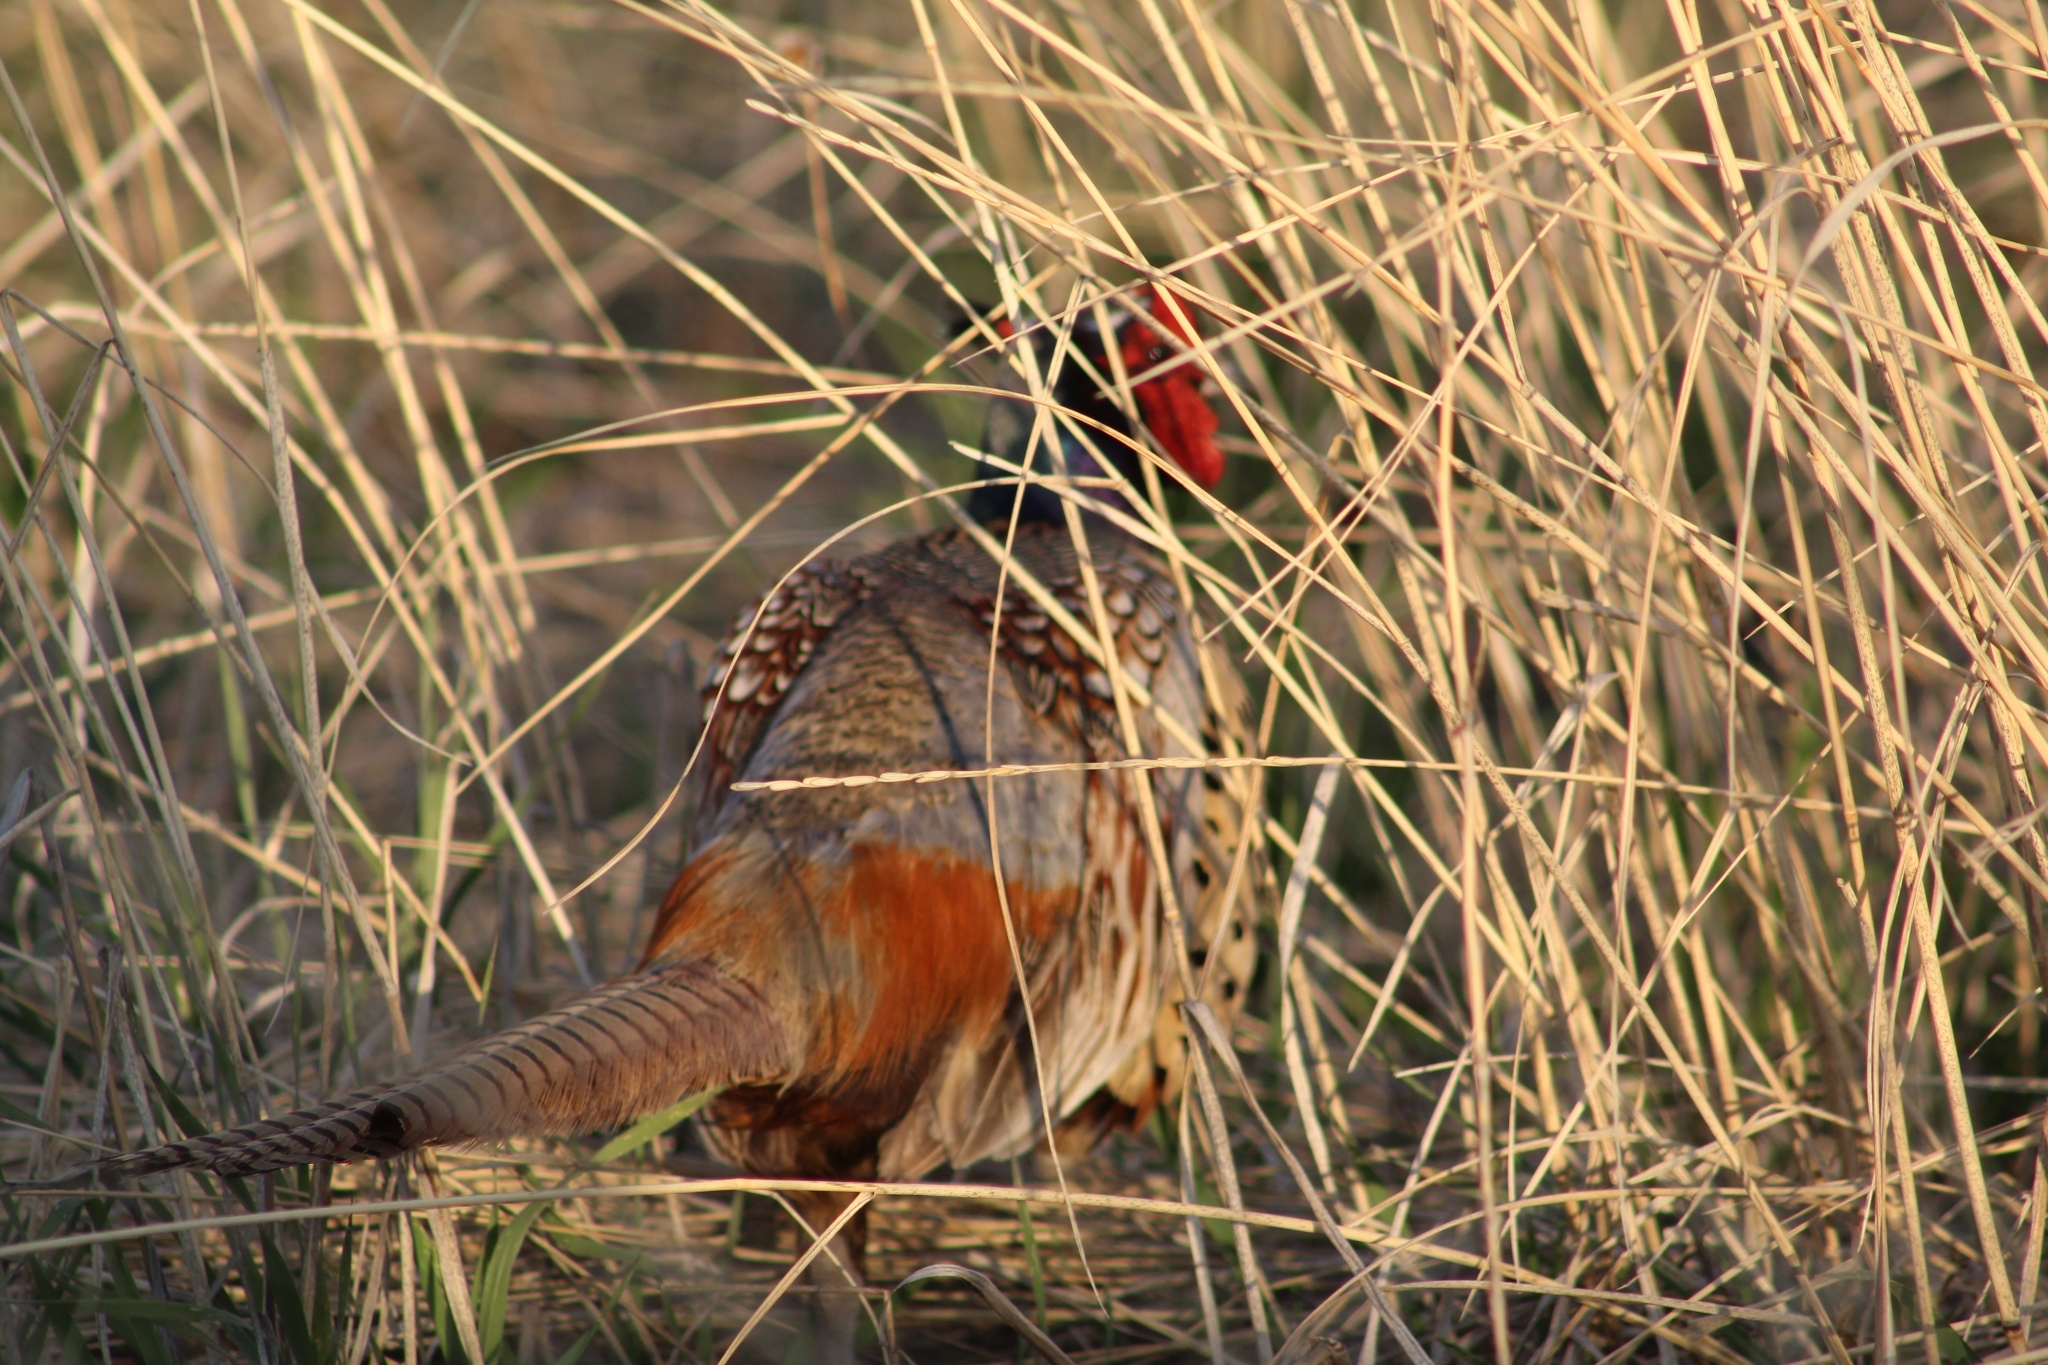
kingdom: Animalia
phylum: Chordata
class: Aves
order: Galliformes
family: Phasianidae
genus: Phasianus
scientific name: Phasianus colchicus
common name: Common pheasant
